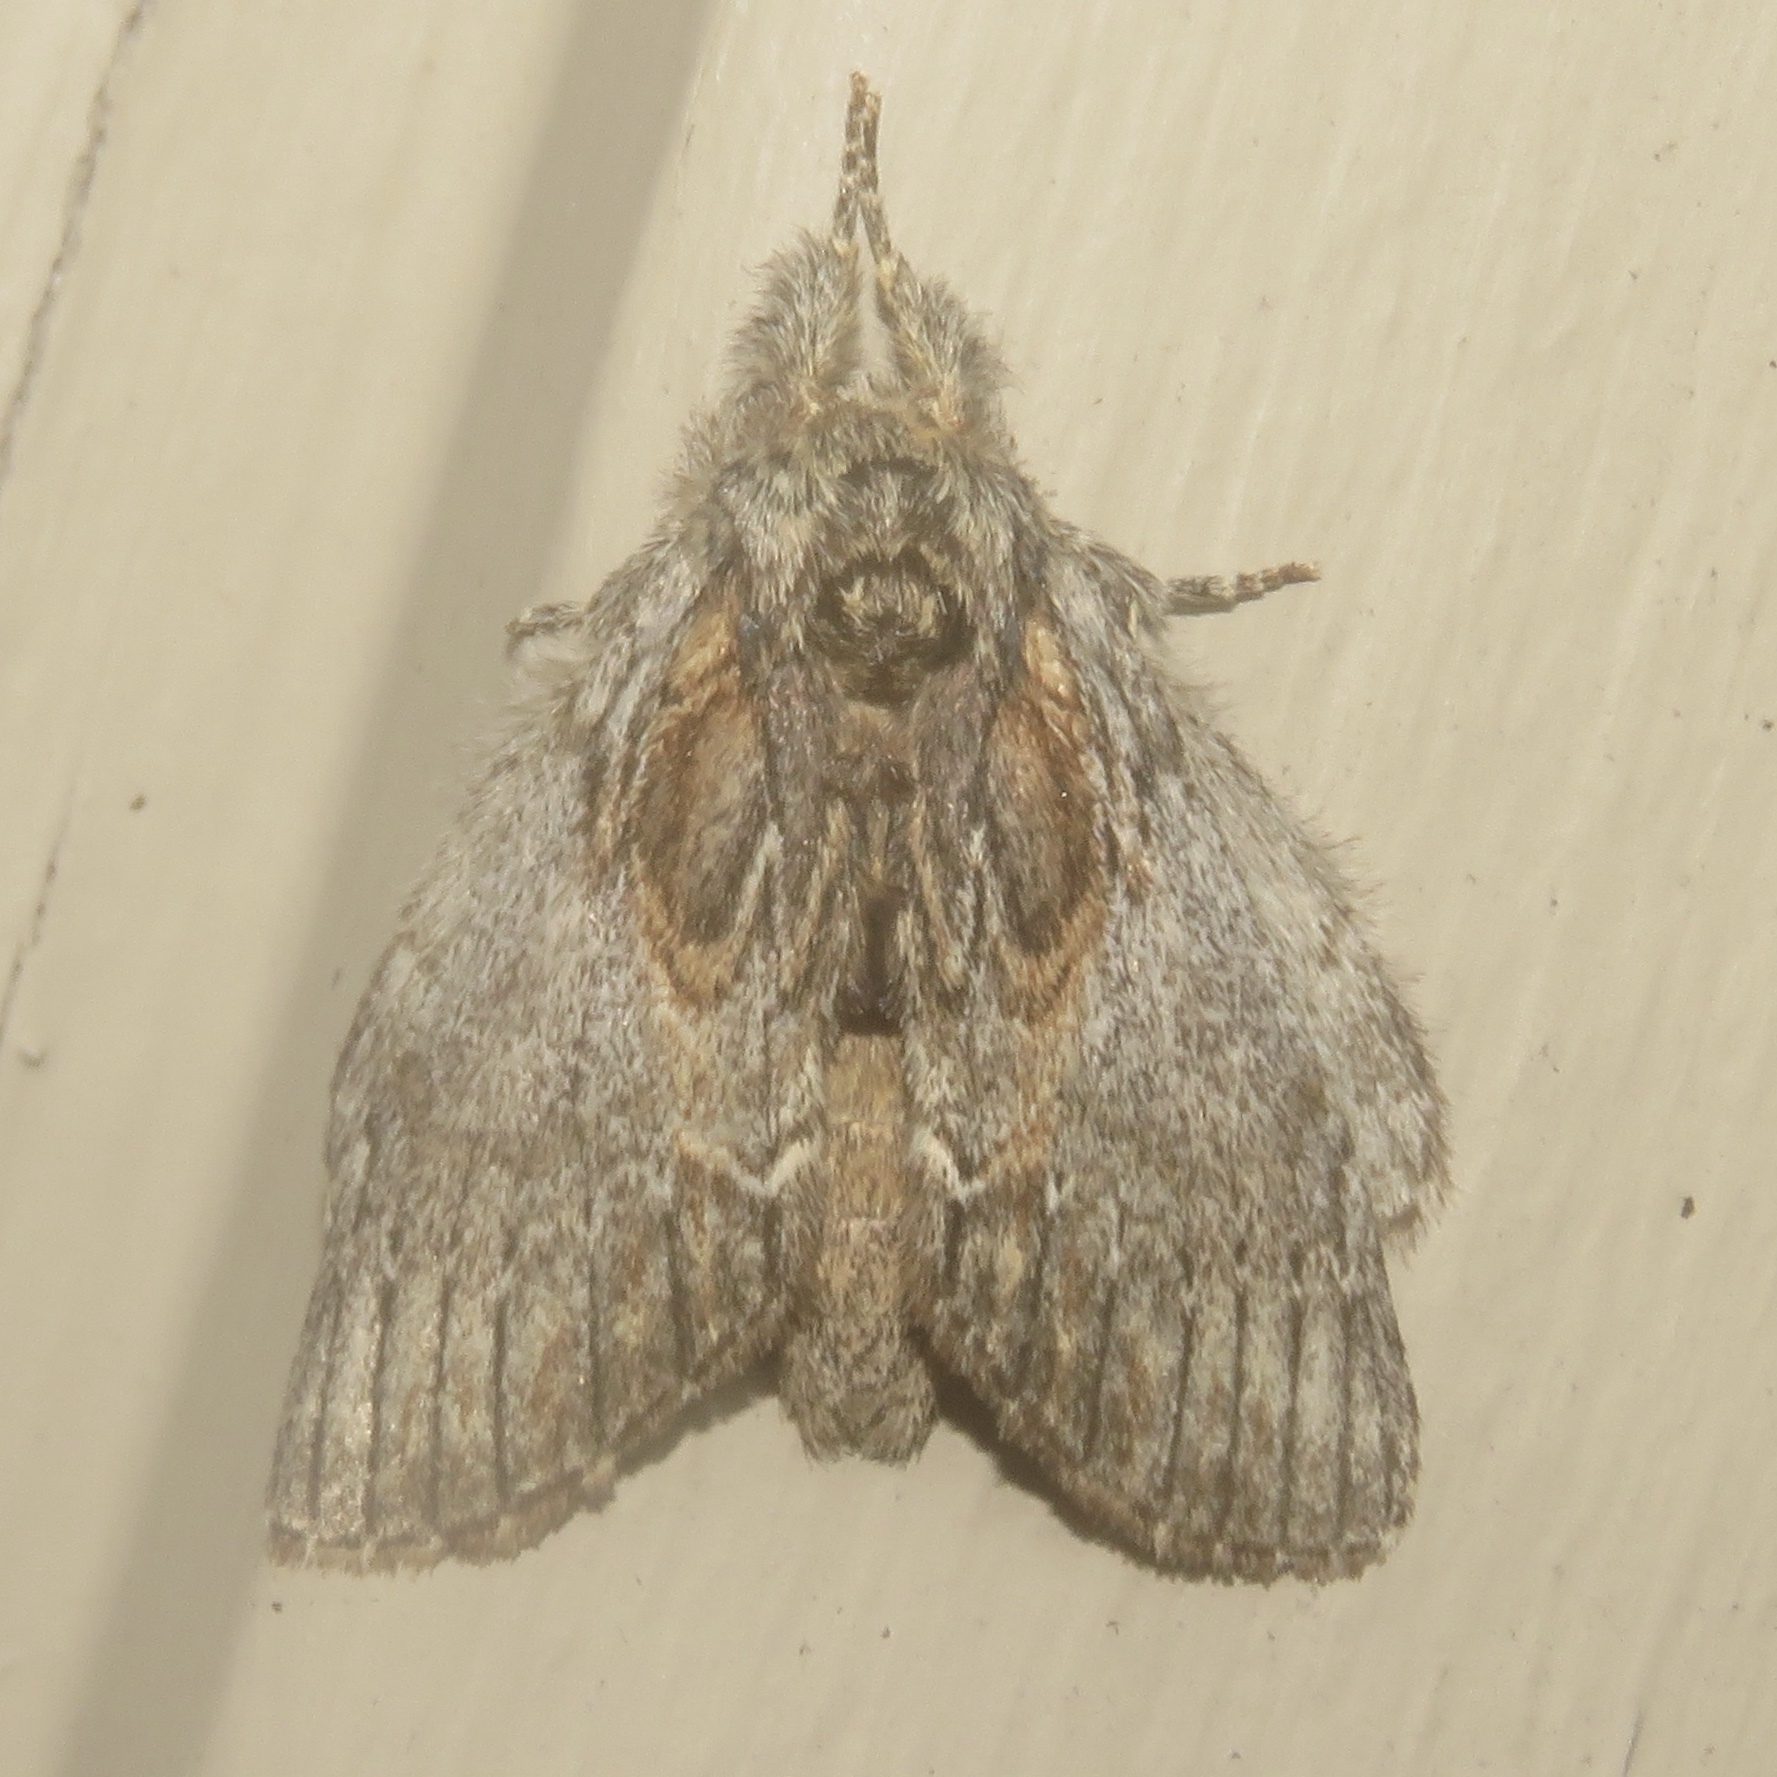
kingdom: Animalia
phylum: Arthropoda
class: Insecta
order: Lepidoptera
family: Notodontidae
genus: Peridea
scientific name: Peridea basitriens
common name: Oval-based prominent
